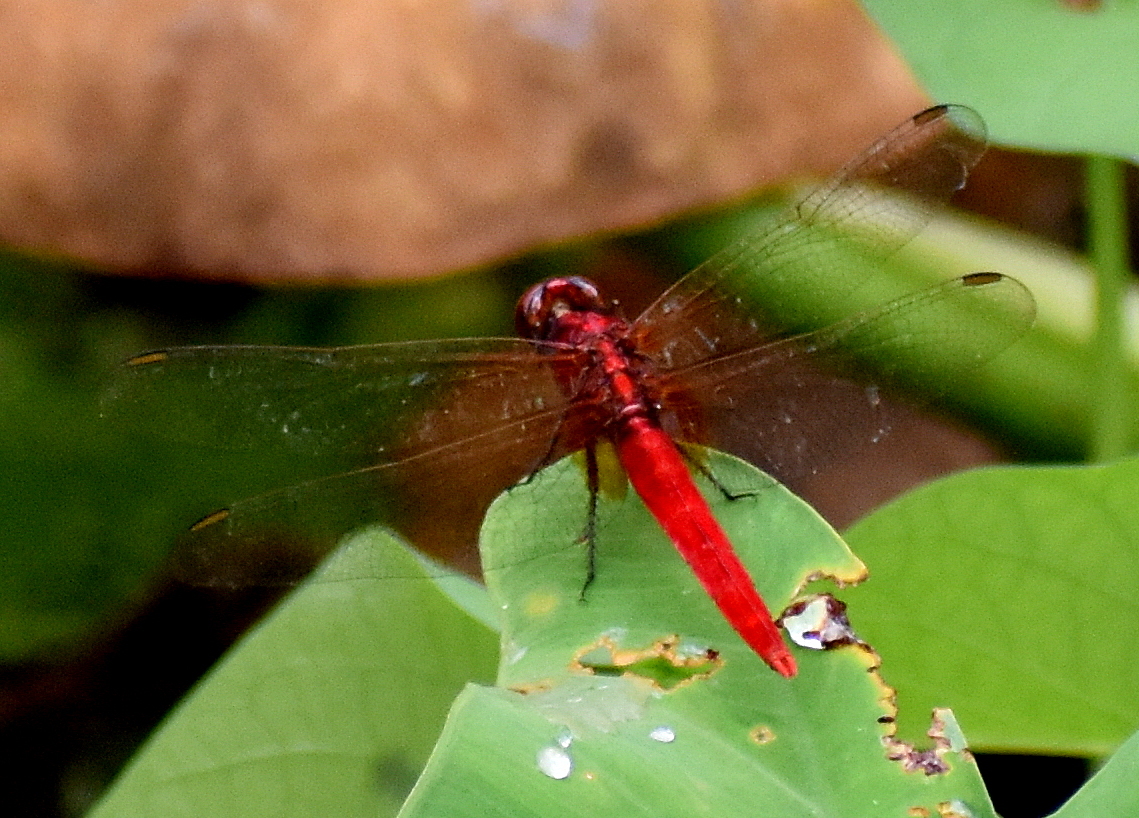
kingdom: Animalia
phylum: Arthropoda
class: Insecta
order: Odonata
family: Libellulidae
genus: Rhodothemis
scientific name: Rhodothemis rufa
